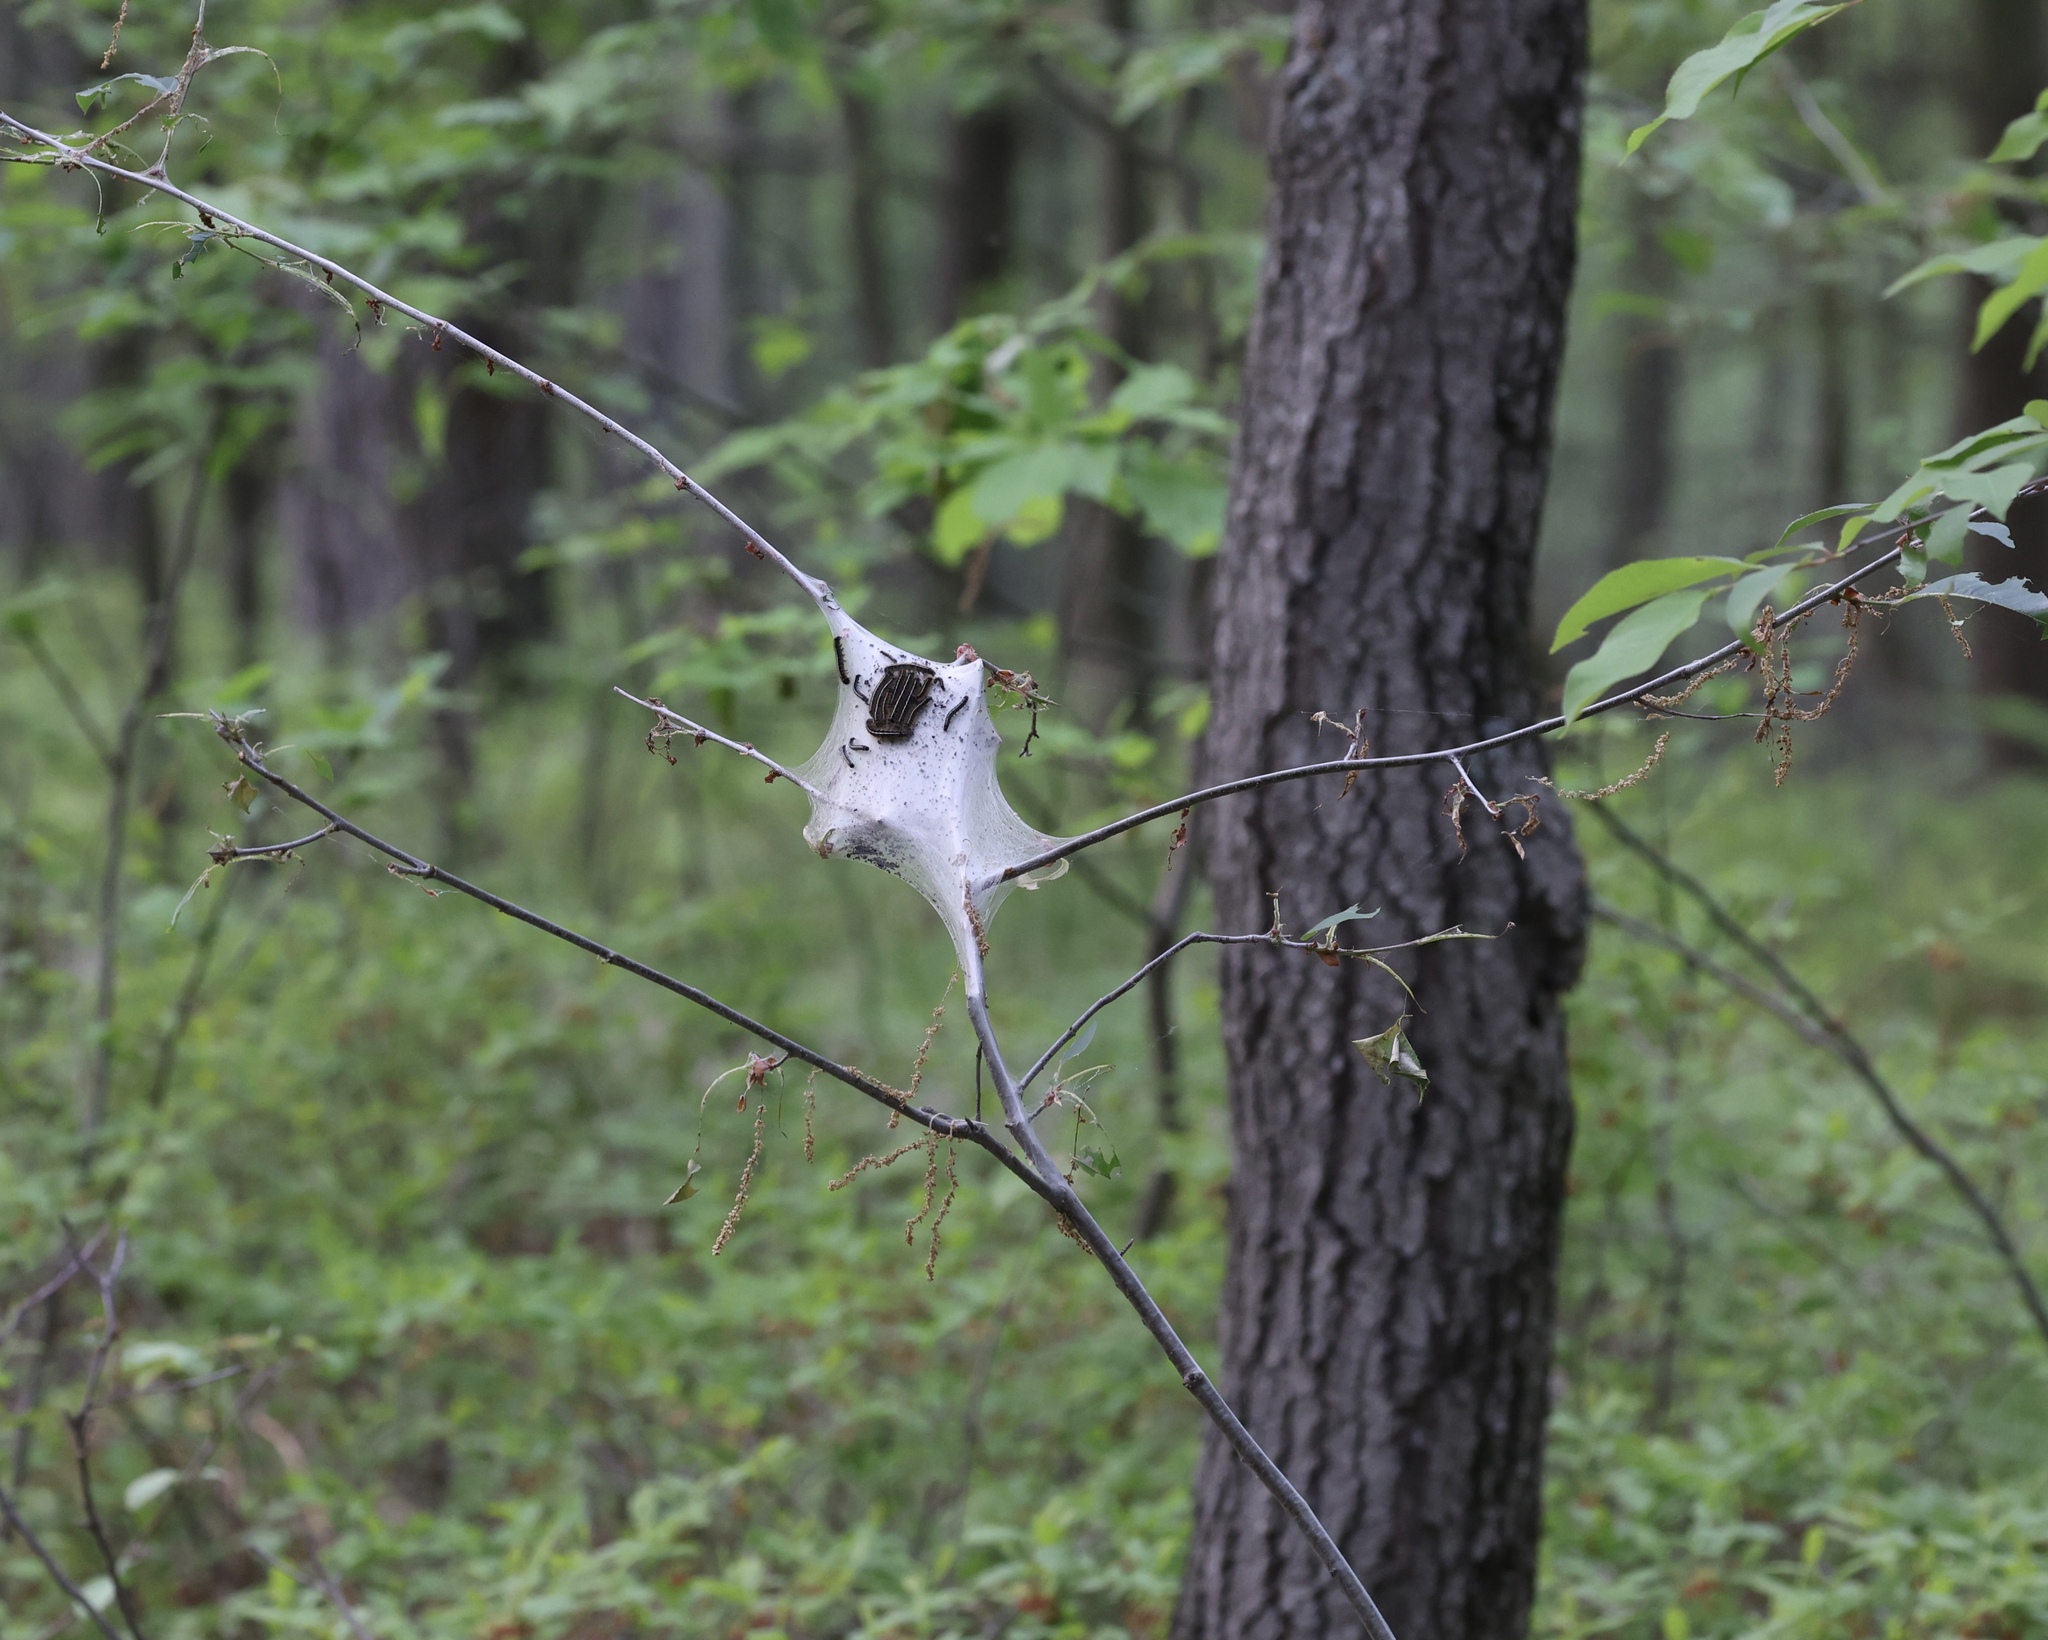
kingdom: Animalia
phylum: Arthropoda
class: Insecta
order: Lepidoptera
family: Lasiocampidae
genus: Malacosoma
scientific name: Malacosoma americana
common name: Eastern tent caterpillar moth
